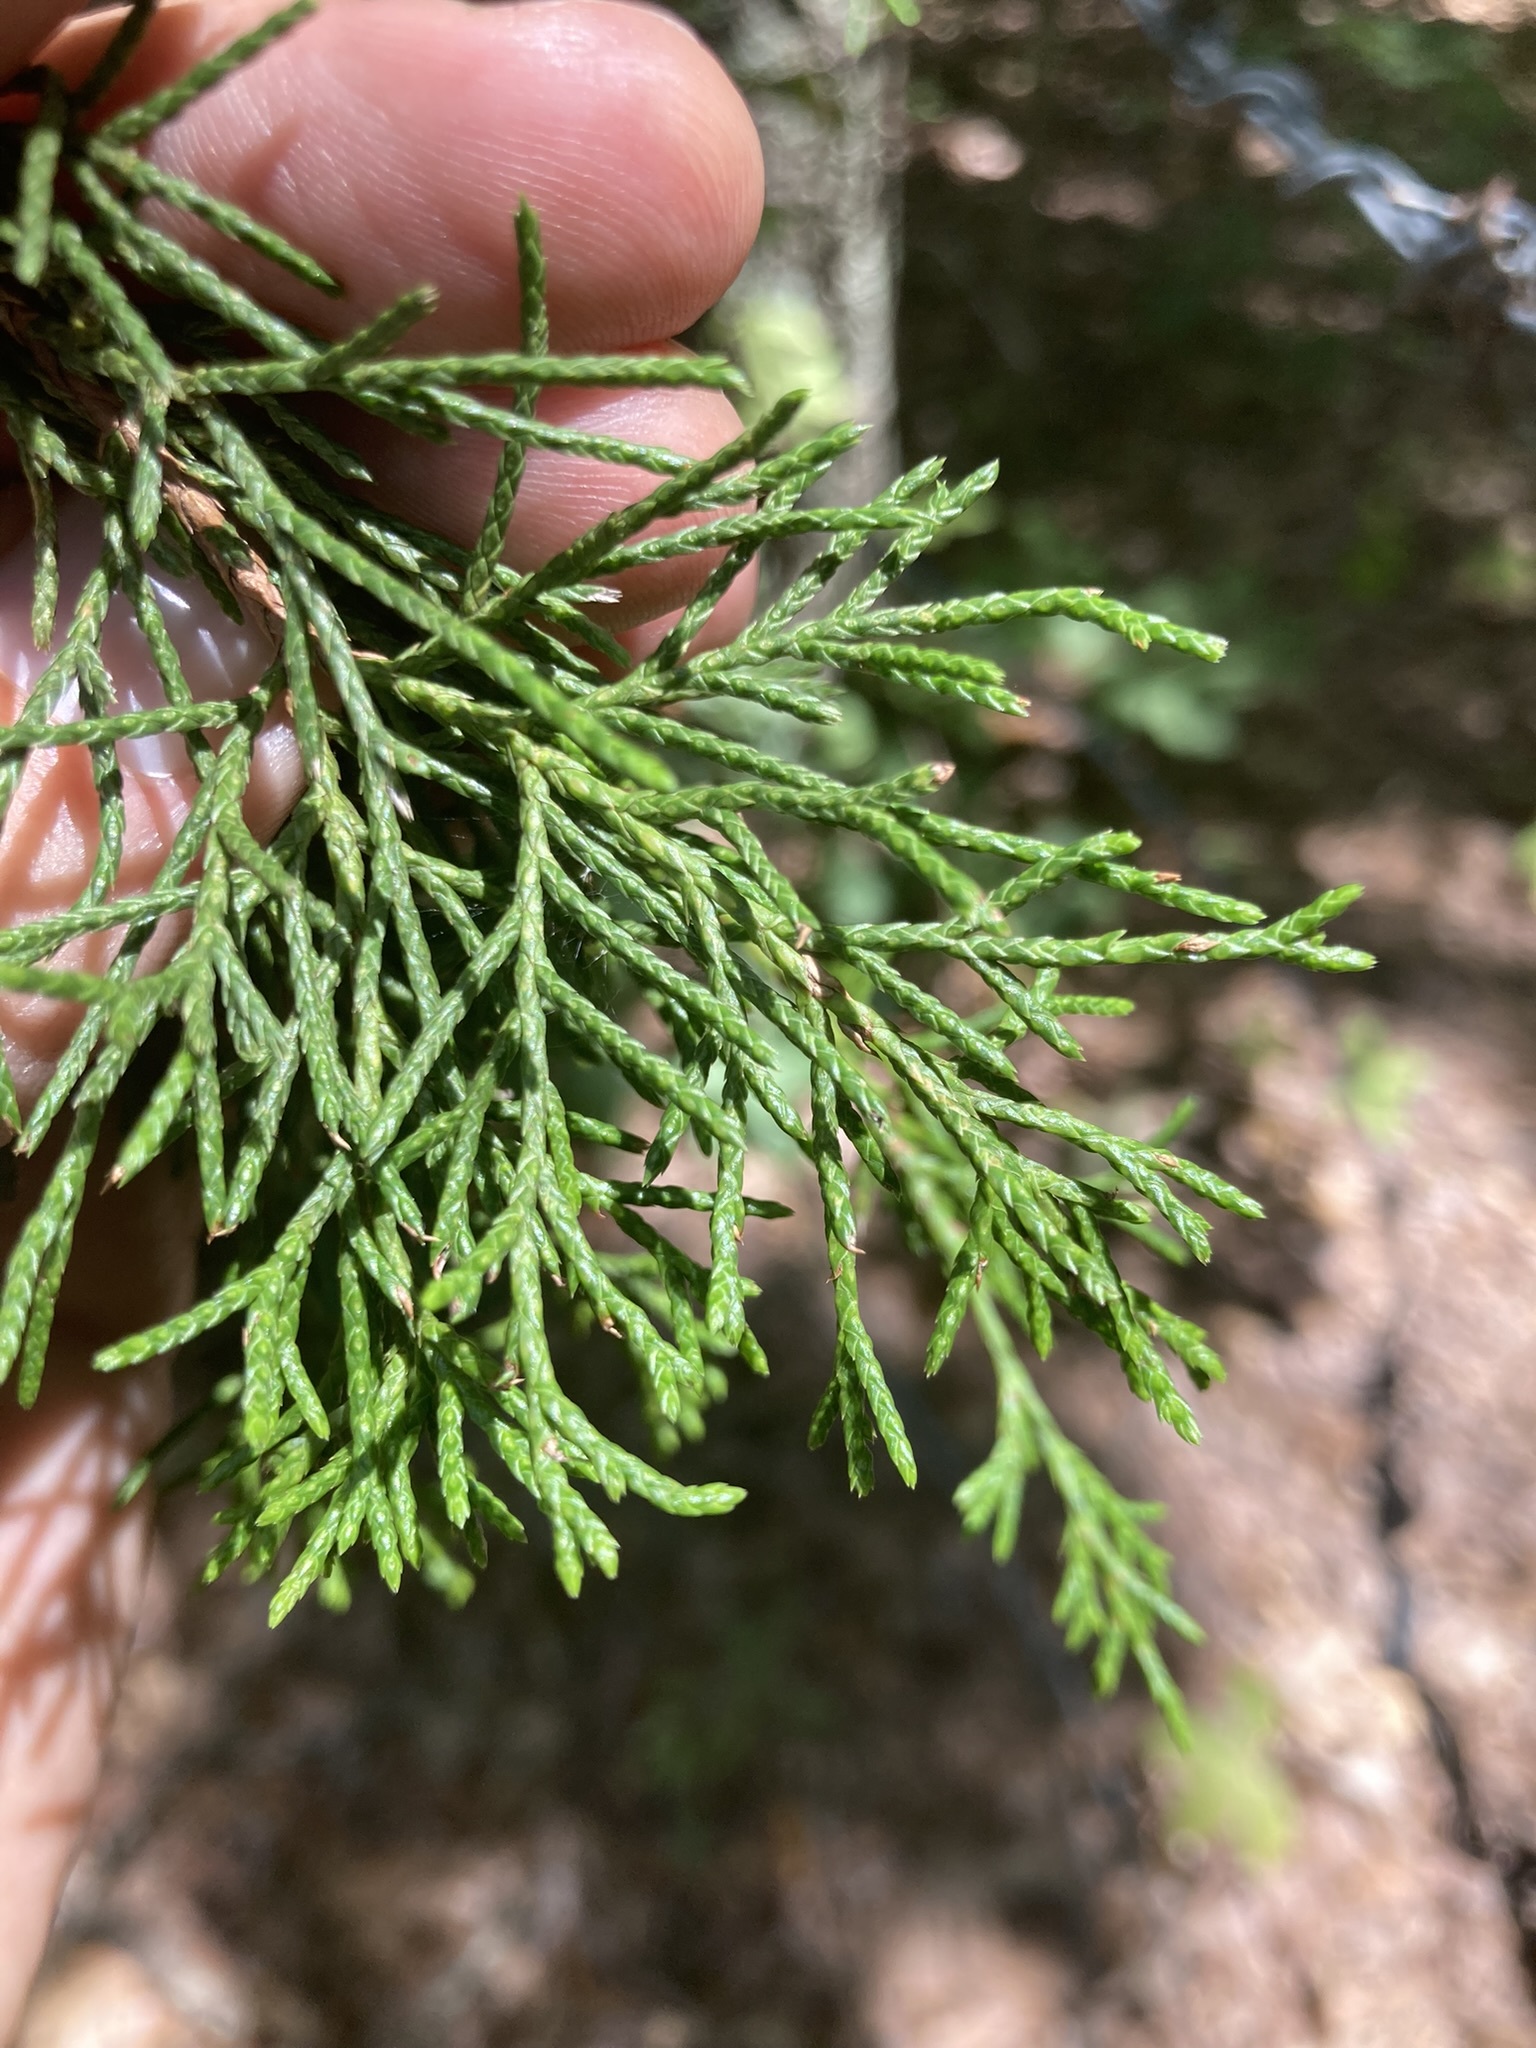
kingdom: Plantae
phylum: Tracheophyta
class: Pinopsida
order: Pinales
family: Cupressaceae
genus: Juniperus
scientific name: Juniperus virginiana
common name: Red juniper
